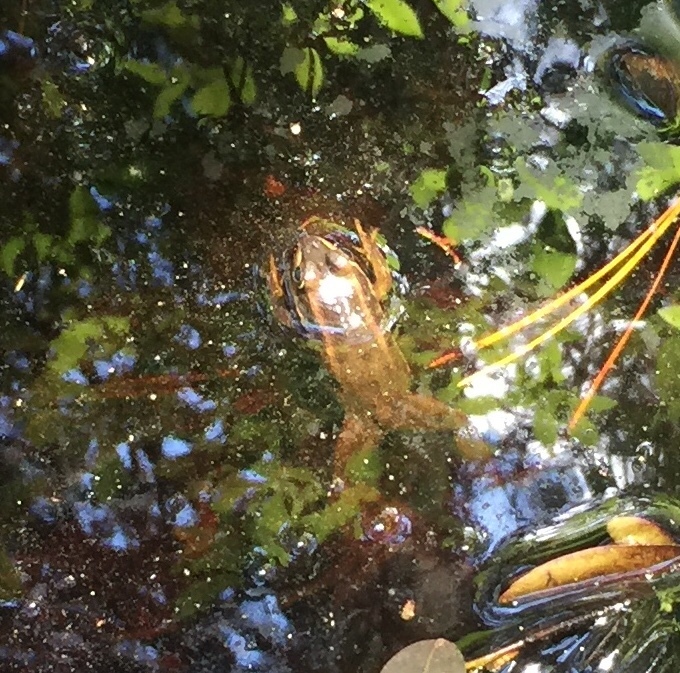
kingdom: Animalia
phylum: Chordata
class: Amphibia
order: Anura
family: Ranidae
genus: Lithobates
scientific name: Lithobates virgatipes
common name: Carpenter frog
